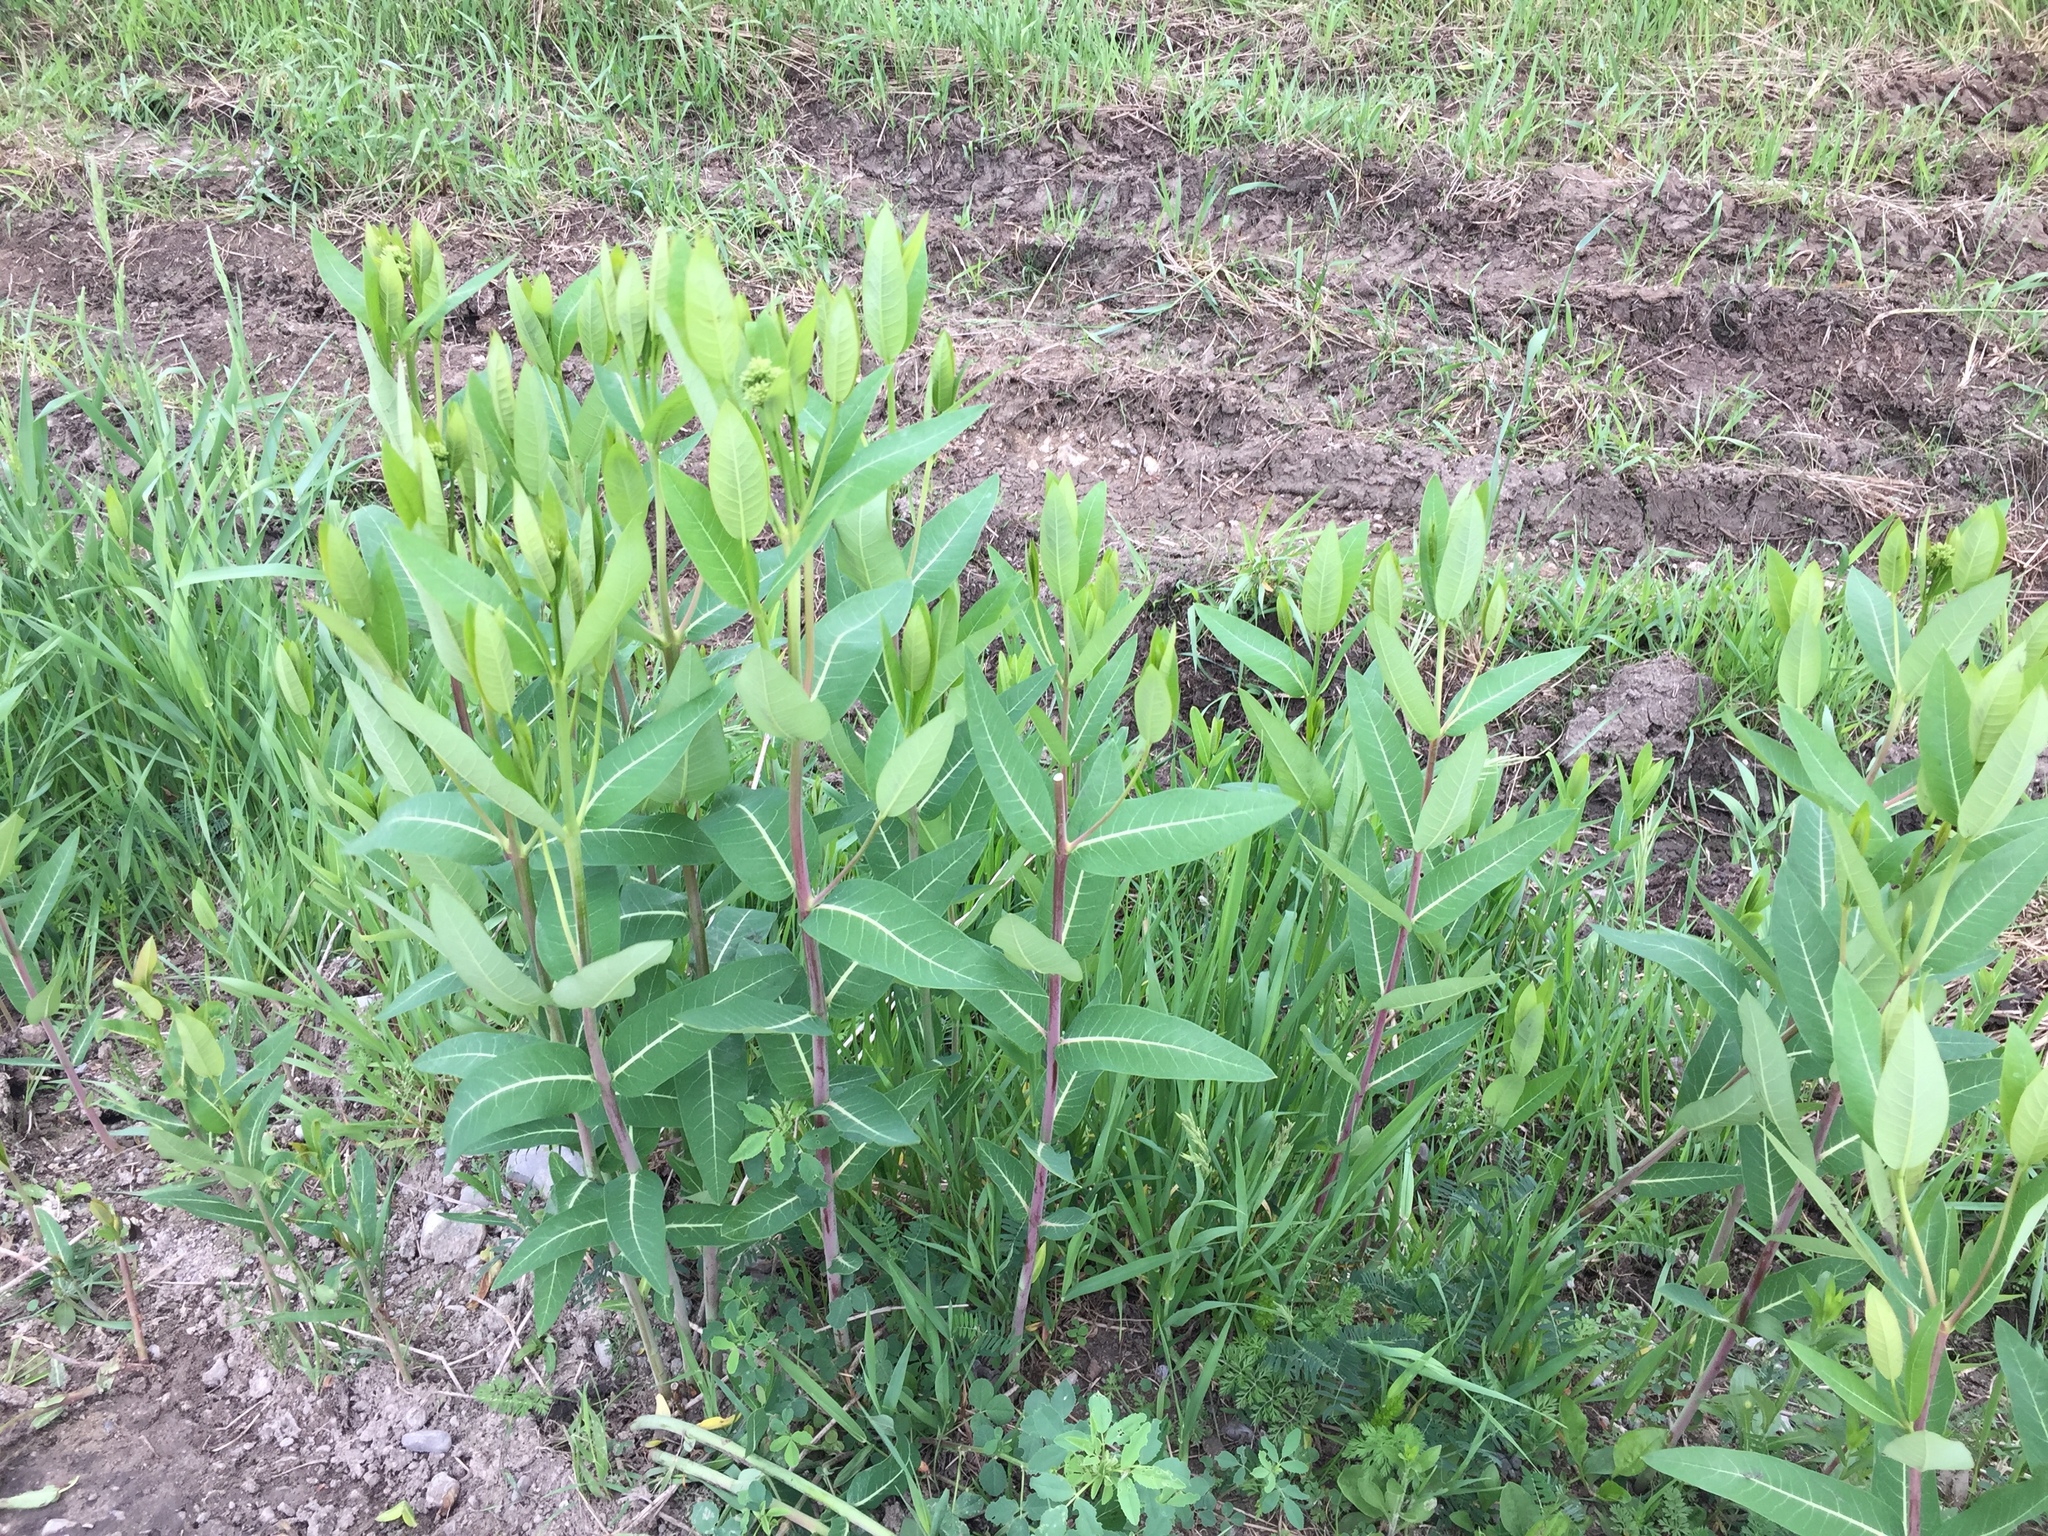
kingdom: Plantae
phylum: Tracheophyta
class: Magnoliopsida
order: Gentianales
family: Apocynaceae
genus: Apocynum
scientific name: Apocynum cannabinum
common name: Hemp dogbane
